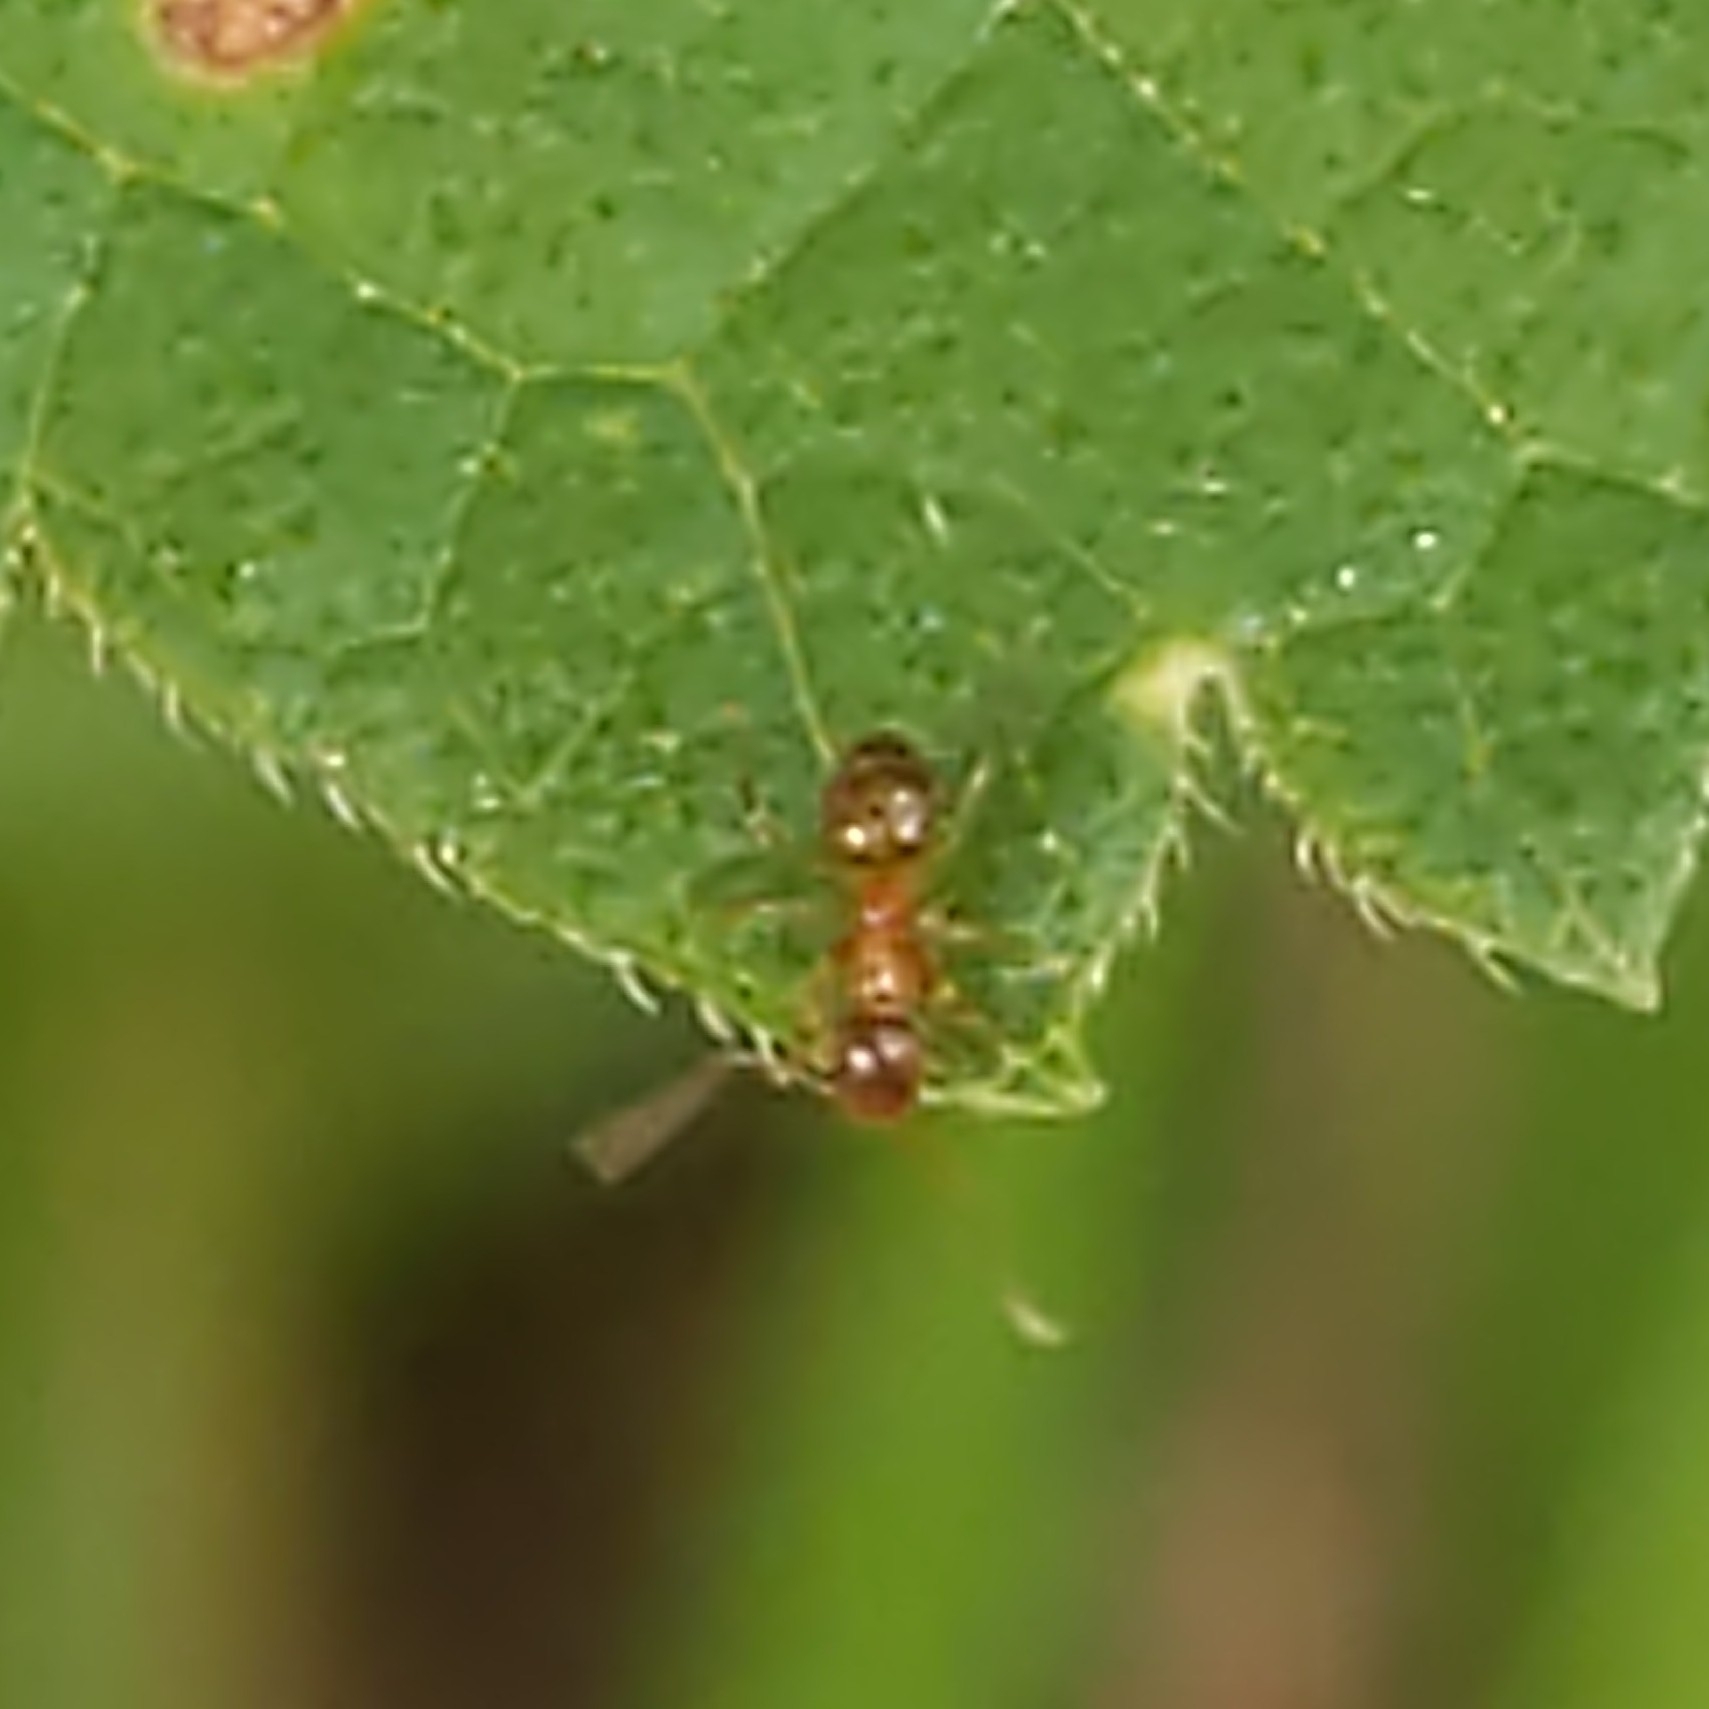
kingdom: Animalia
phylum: Arthropoda
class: Insecta
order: Hymenoptera
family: Formicidae
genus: Paratrechina
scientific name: Paratrechina flavipes
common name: Eastern asian formicine ant
